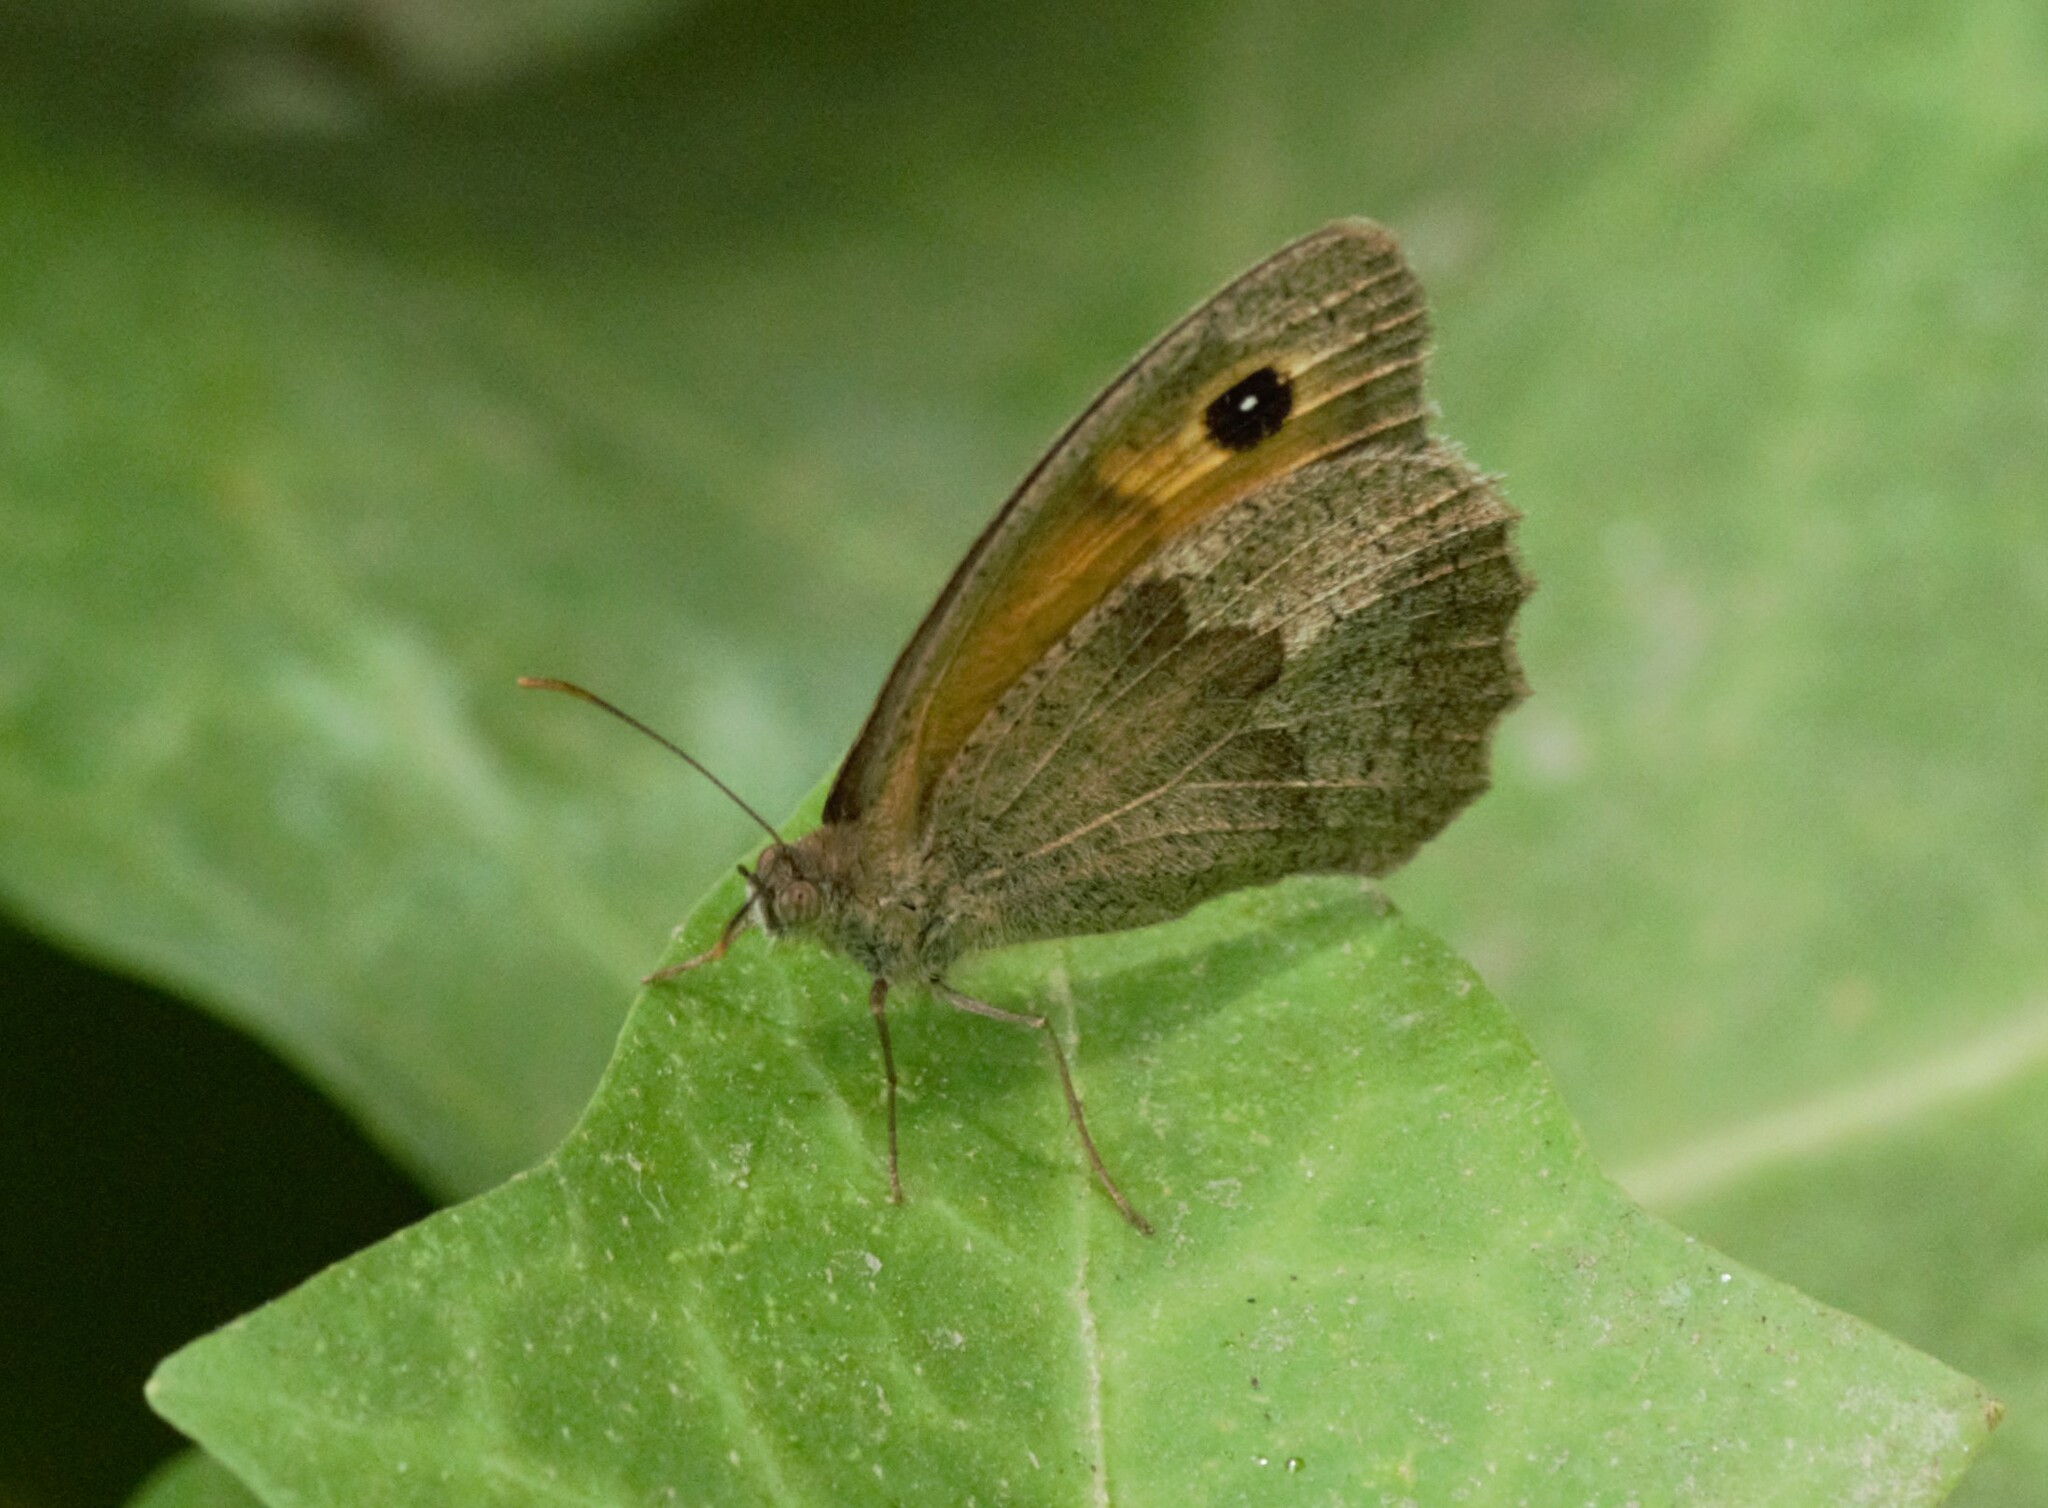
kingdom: Animalia
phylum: Arthropoda
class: Insecta
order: Lepidoptera
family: Nymphalidae
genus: Maniola
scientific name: Maniola jurtina
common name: Meadow brown
